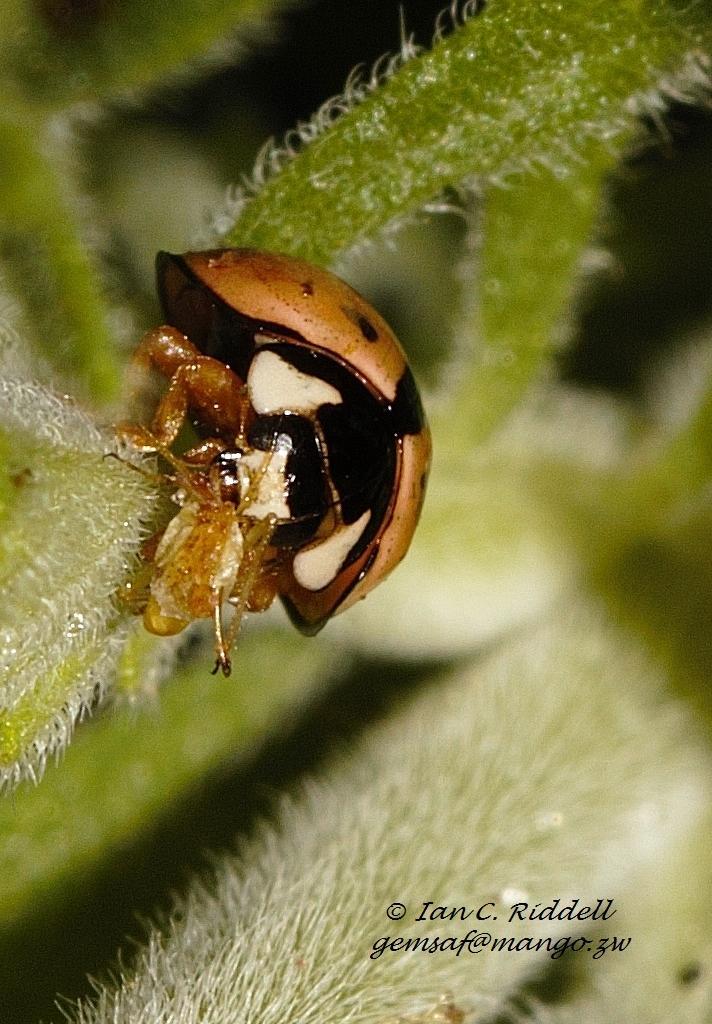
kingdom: Animalia
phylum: Arthropoda
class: Insecta
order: Coleoptera
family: Coccinellidae
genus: Cheilomenes
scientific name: Cheilomenes propinqua
